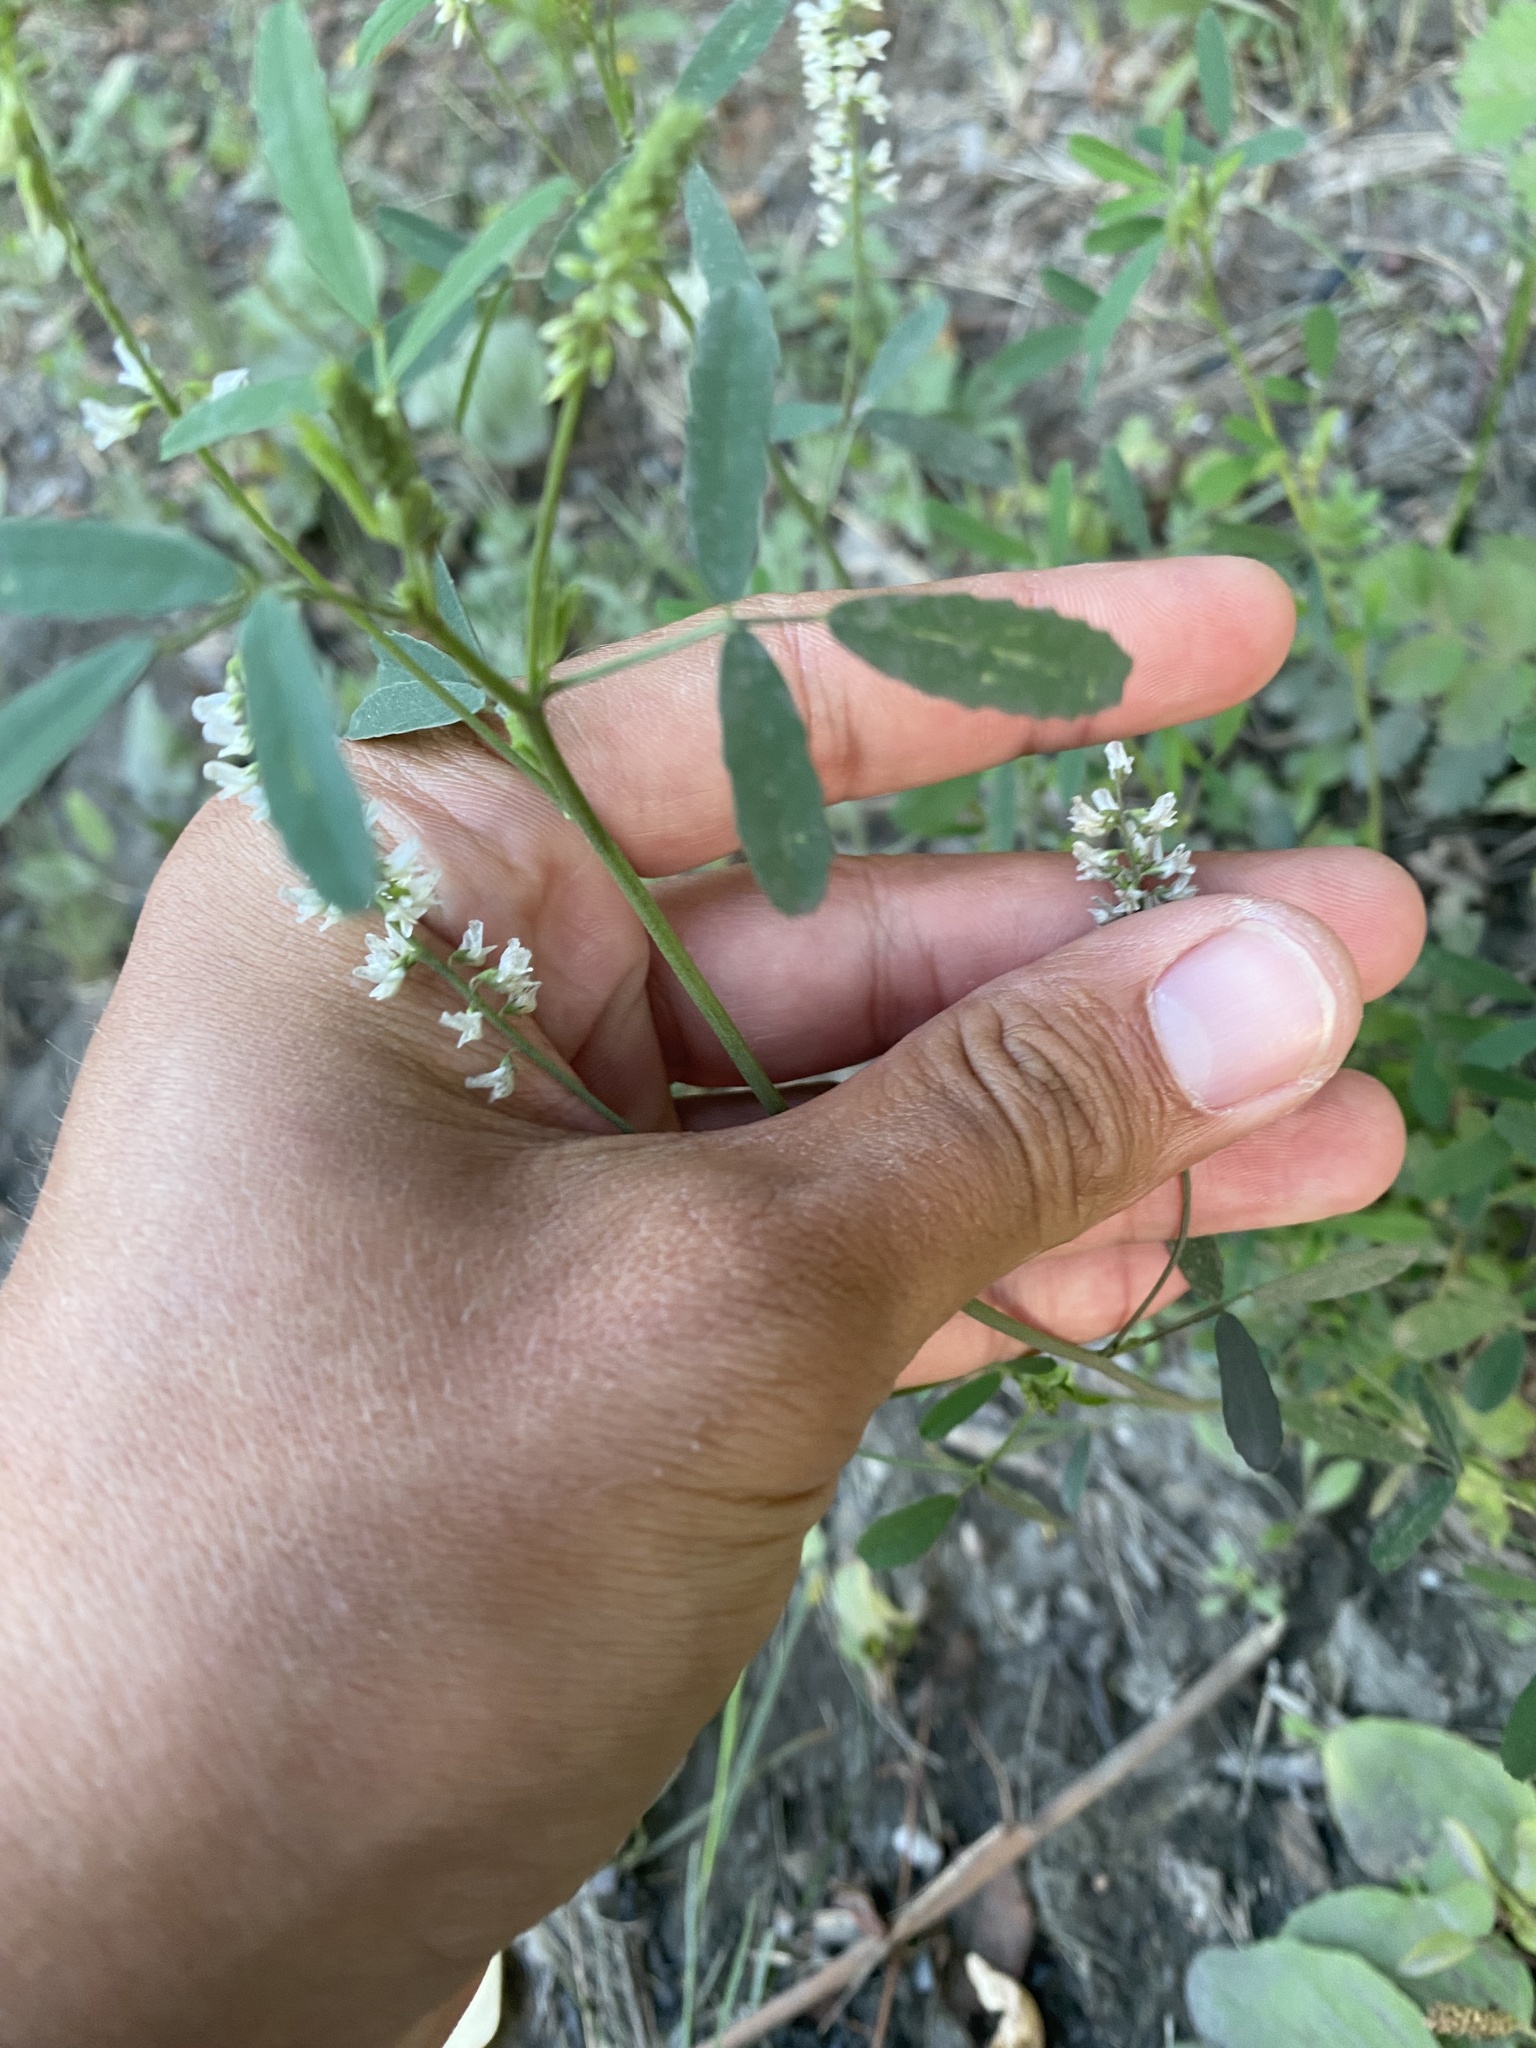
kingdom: Plantae
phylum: Tracheophyta
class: Magnoliopsida
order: Fabales
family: Fabaceae
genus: Melilotus
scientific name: Melilotus albus
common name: White melilot
